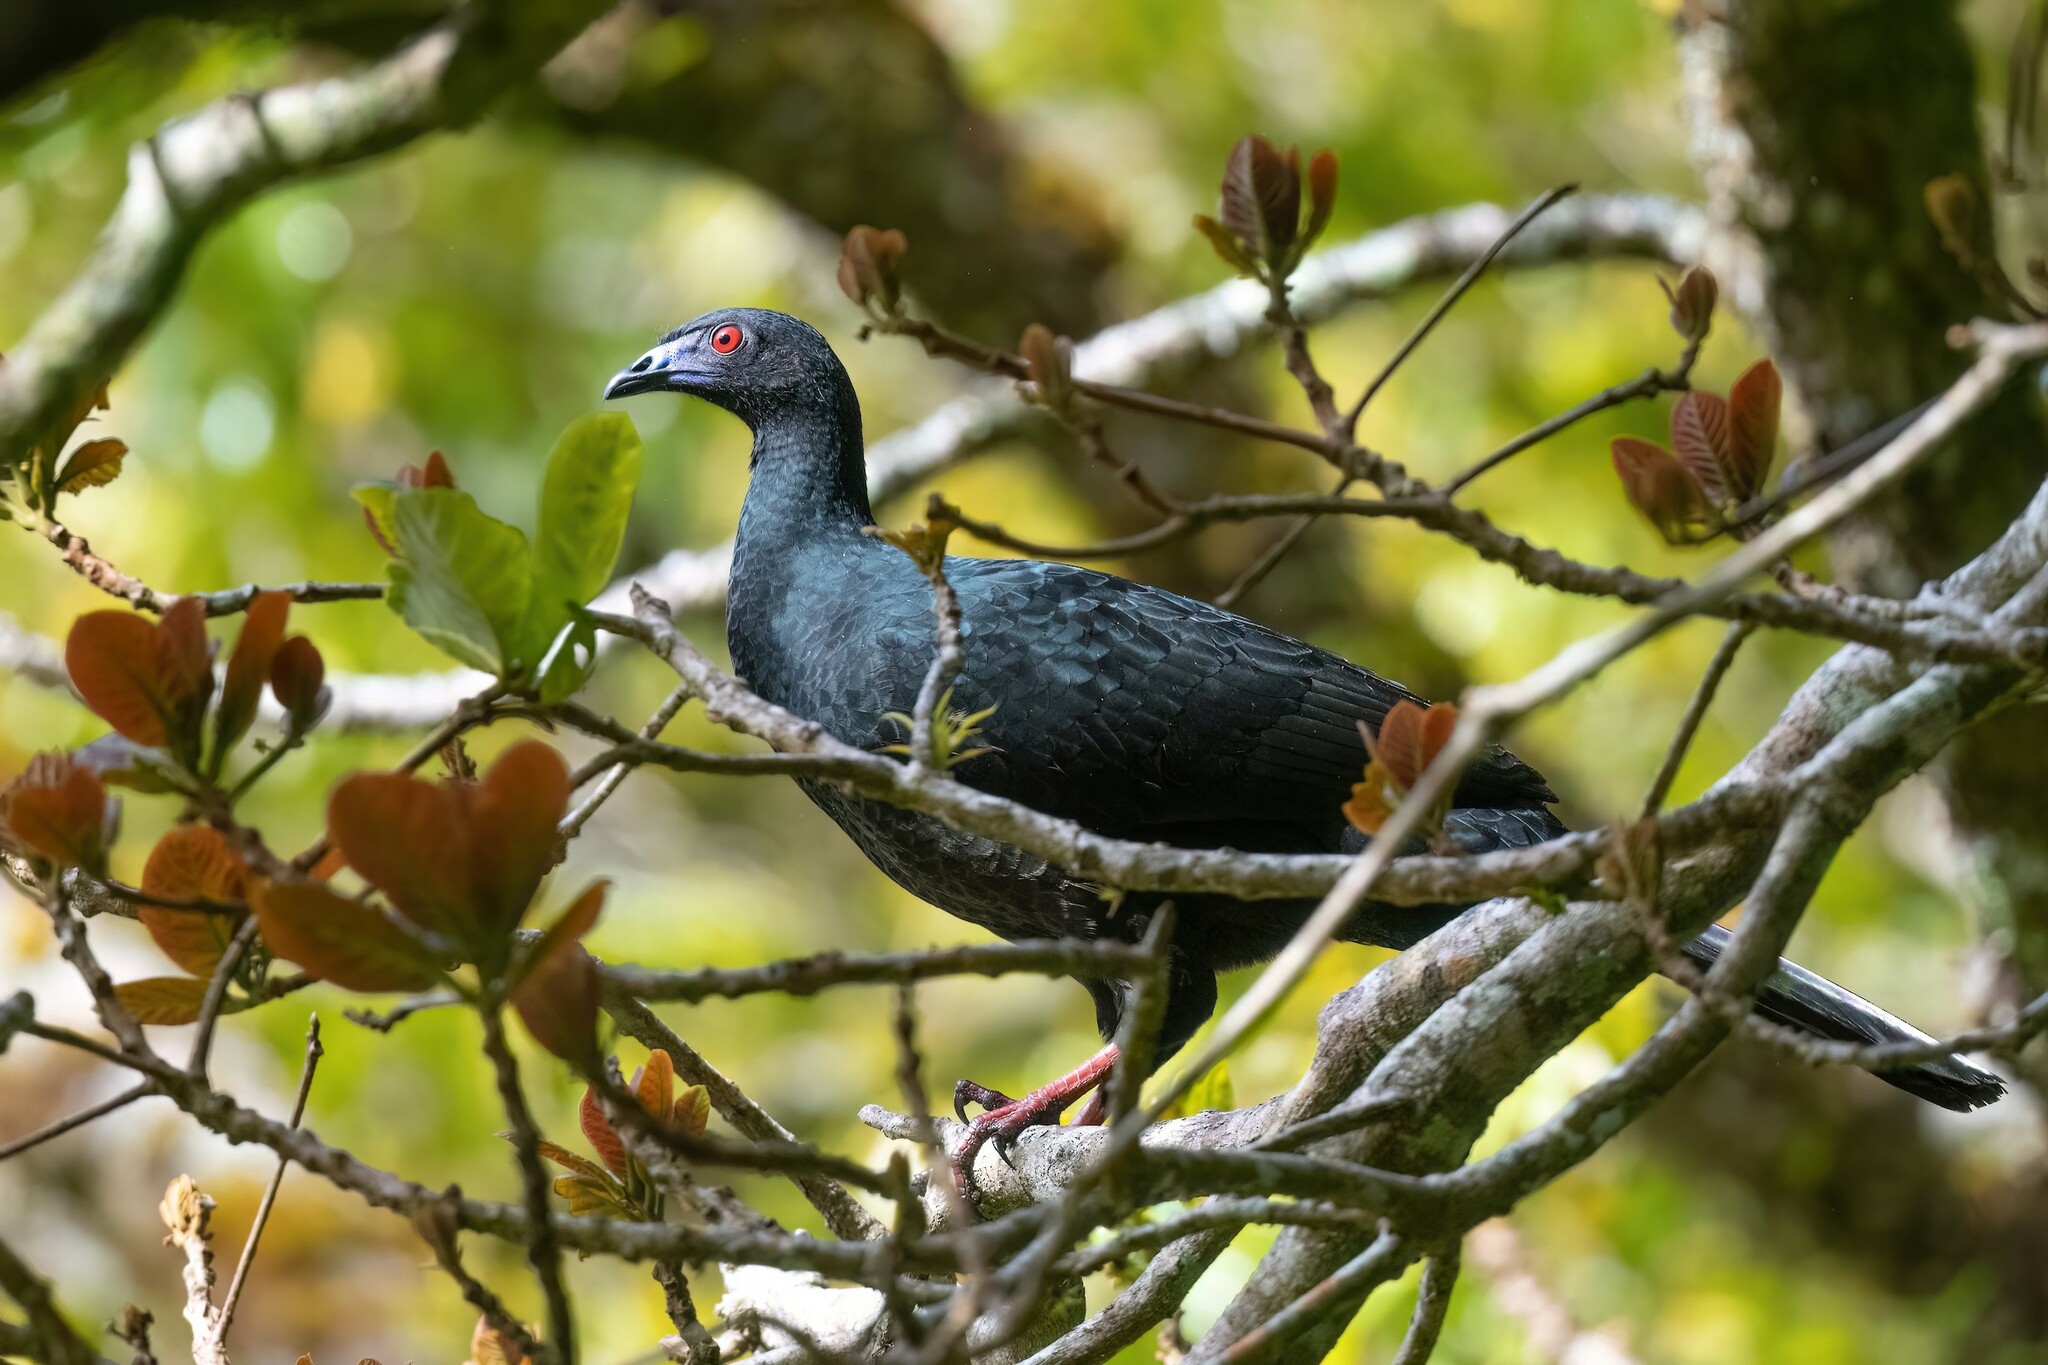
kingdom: Animalia
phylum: Chordata
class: Aves
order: Galliformes
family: Cracidae
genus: Chamaepetes
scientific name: Chamaepetes unicolor
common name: Black guan
